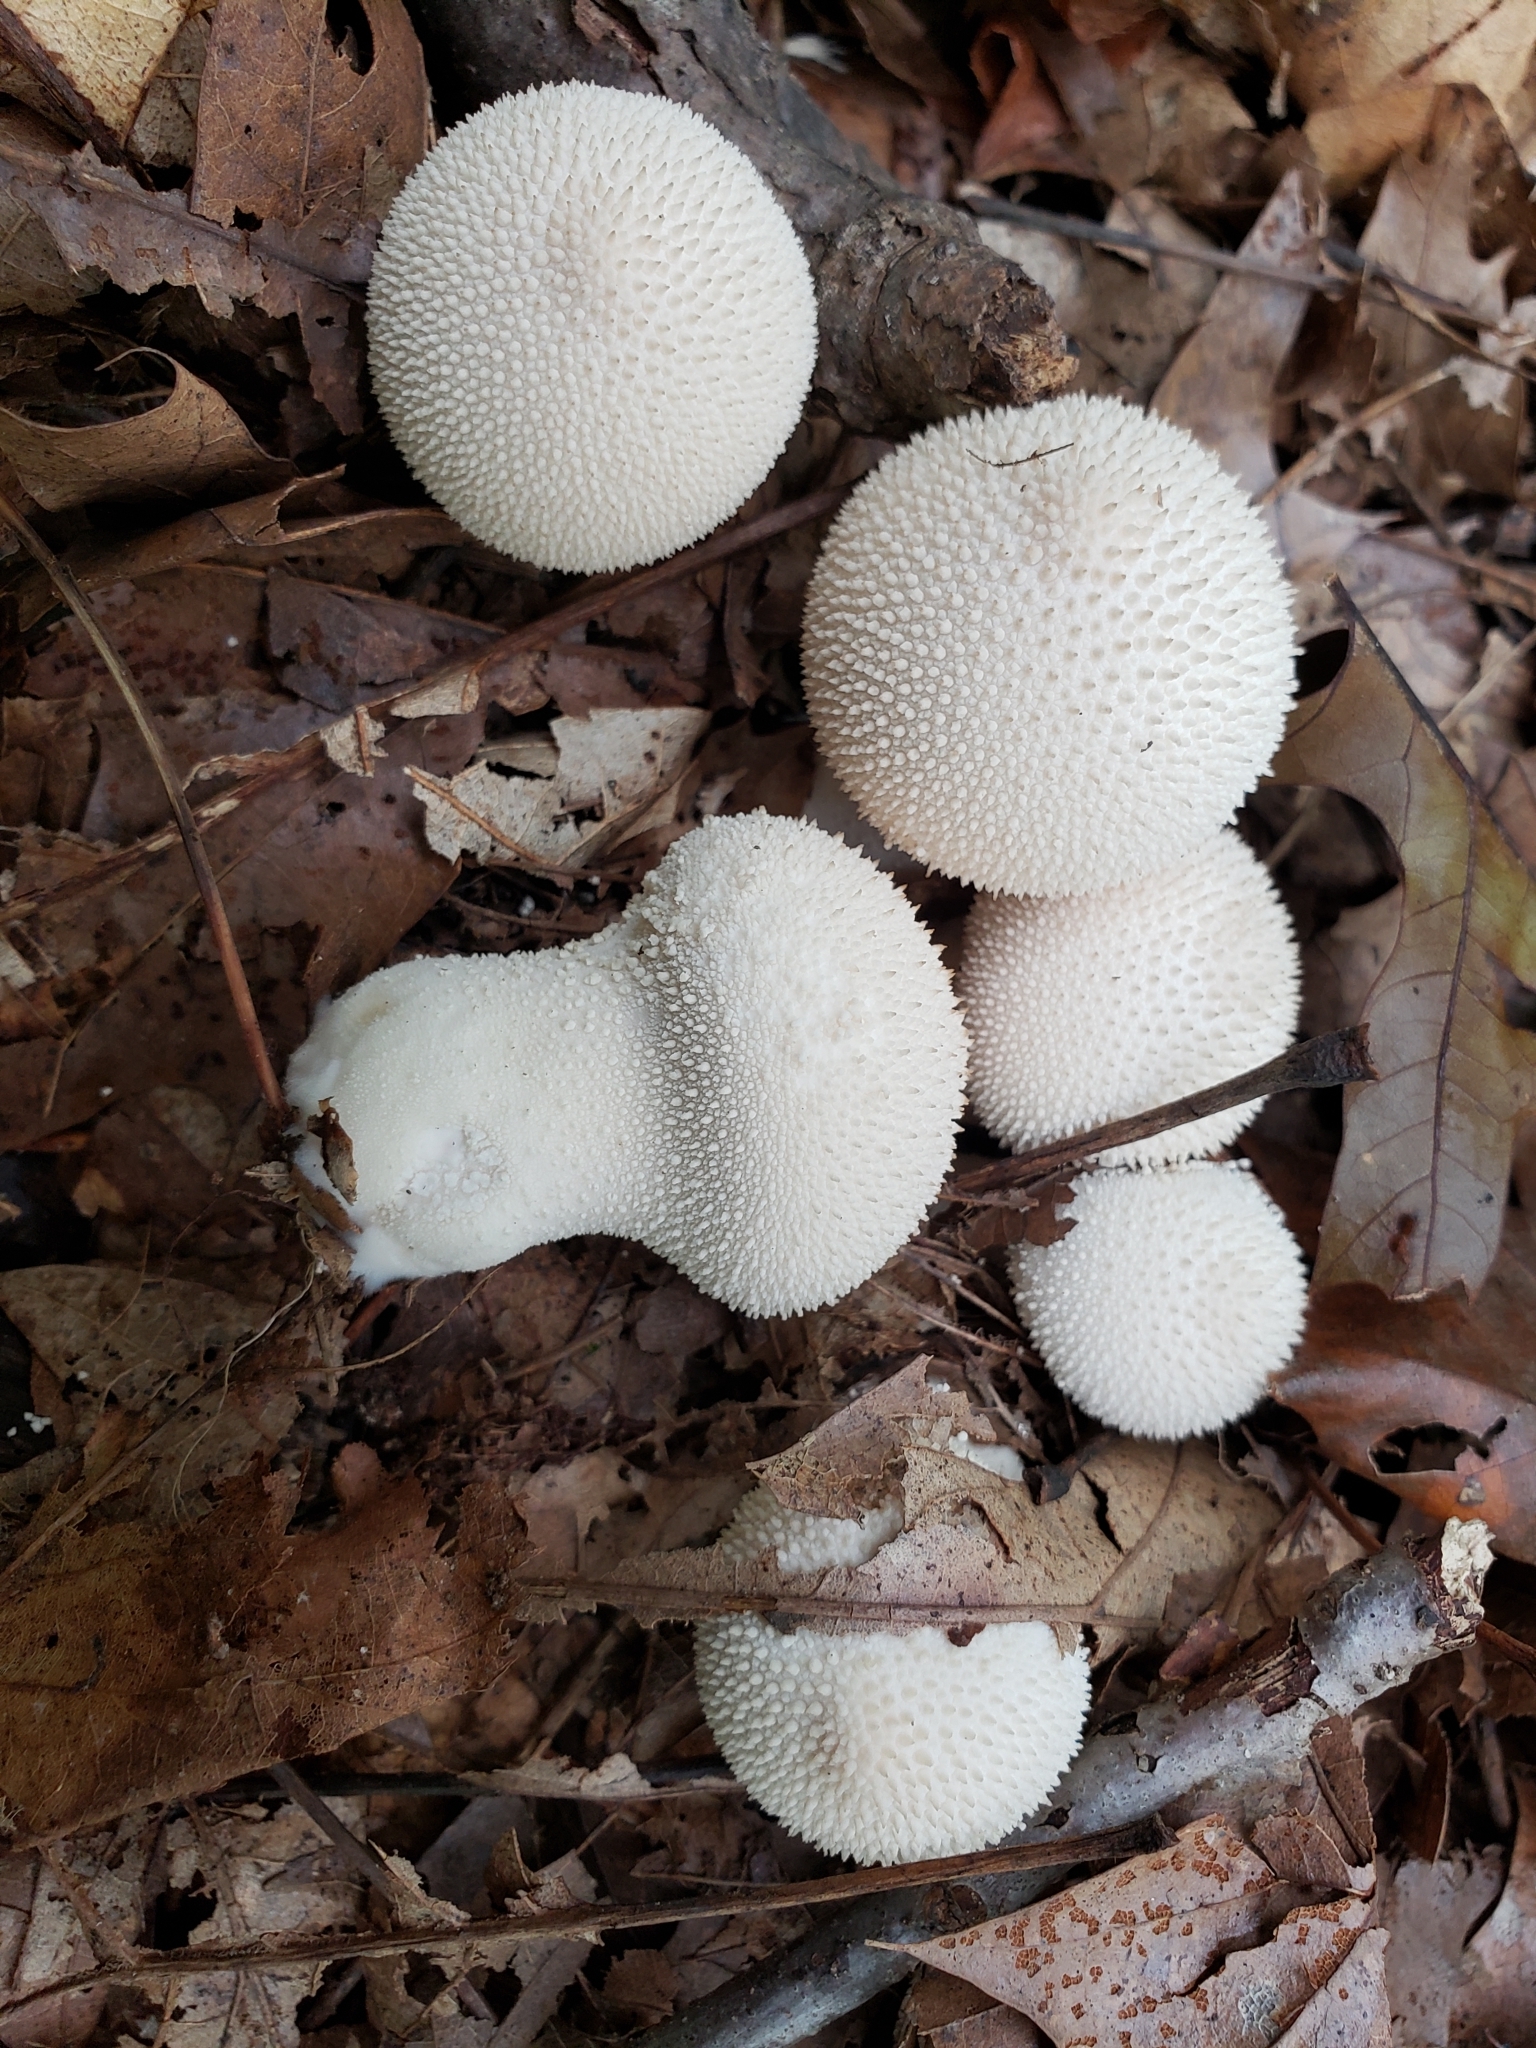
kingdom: Fungi
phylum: Basidiomycota
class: Agaricomycetes
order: Agaricales
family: Lycoperdaceae
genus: Lycoperdon
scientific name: Lycoperdon perlatum
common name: Common puffball
